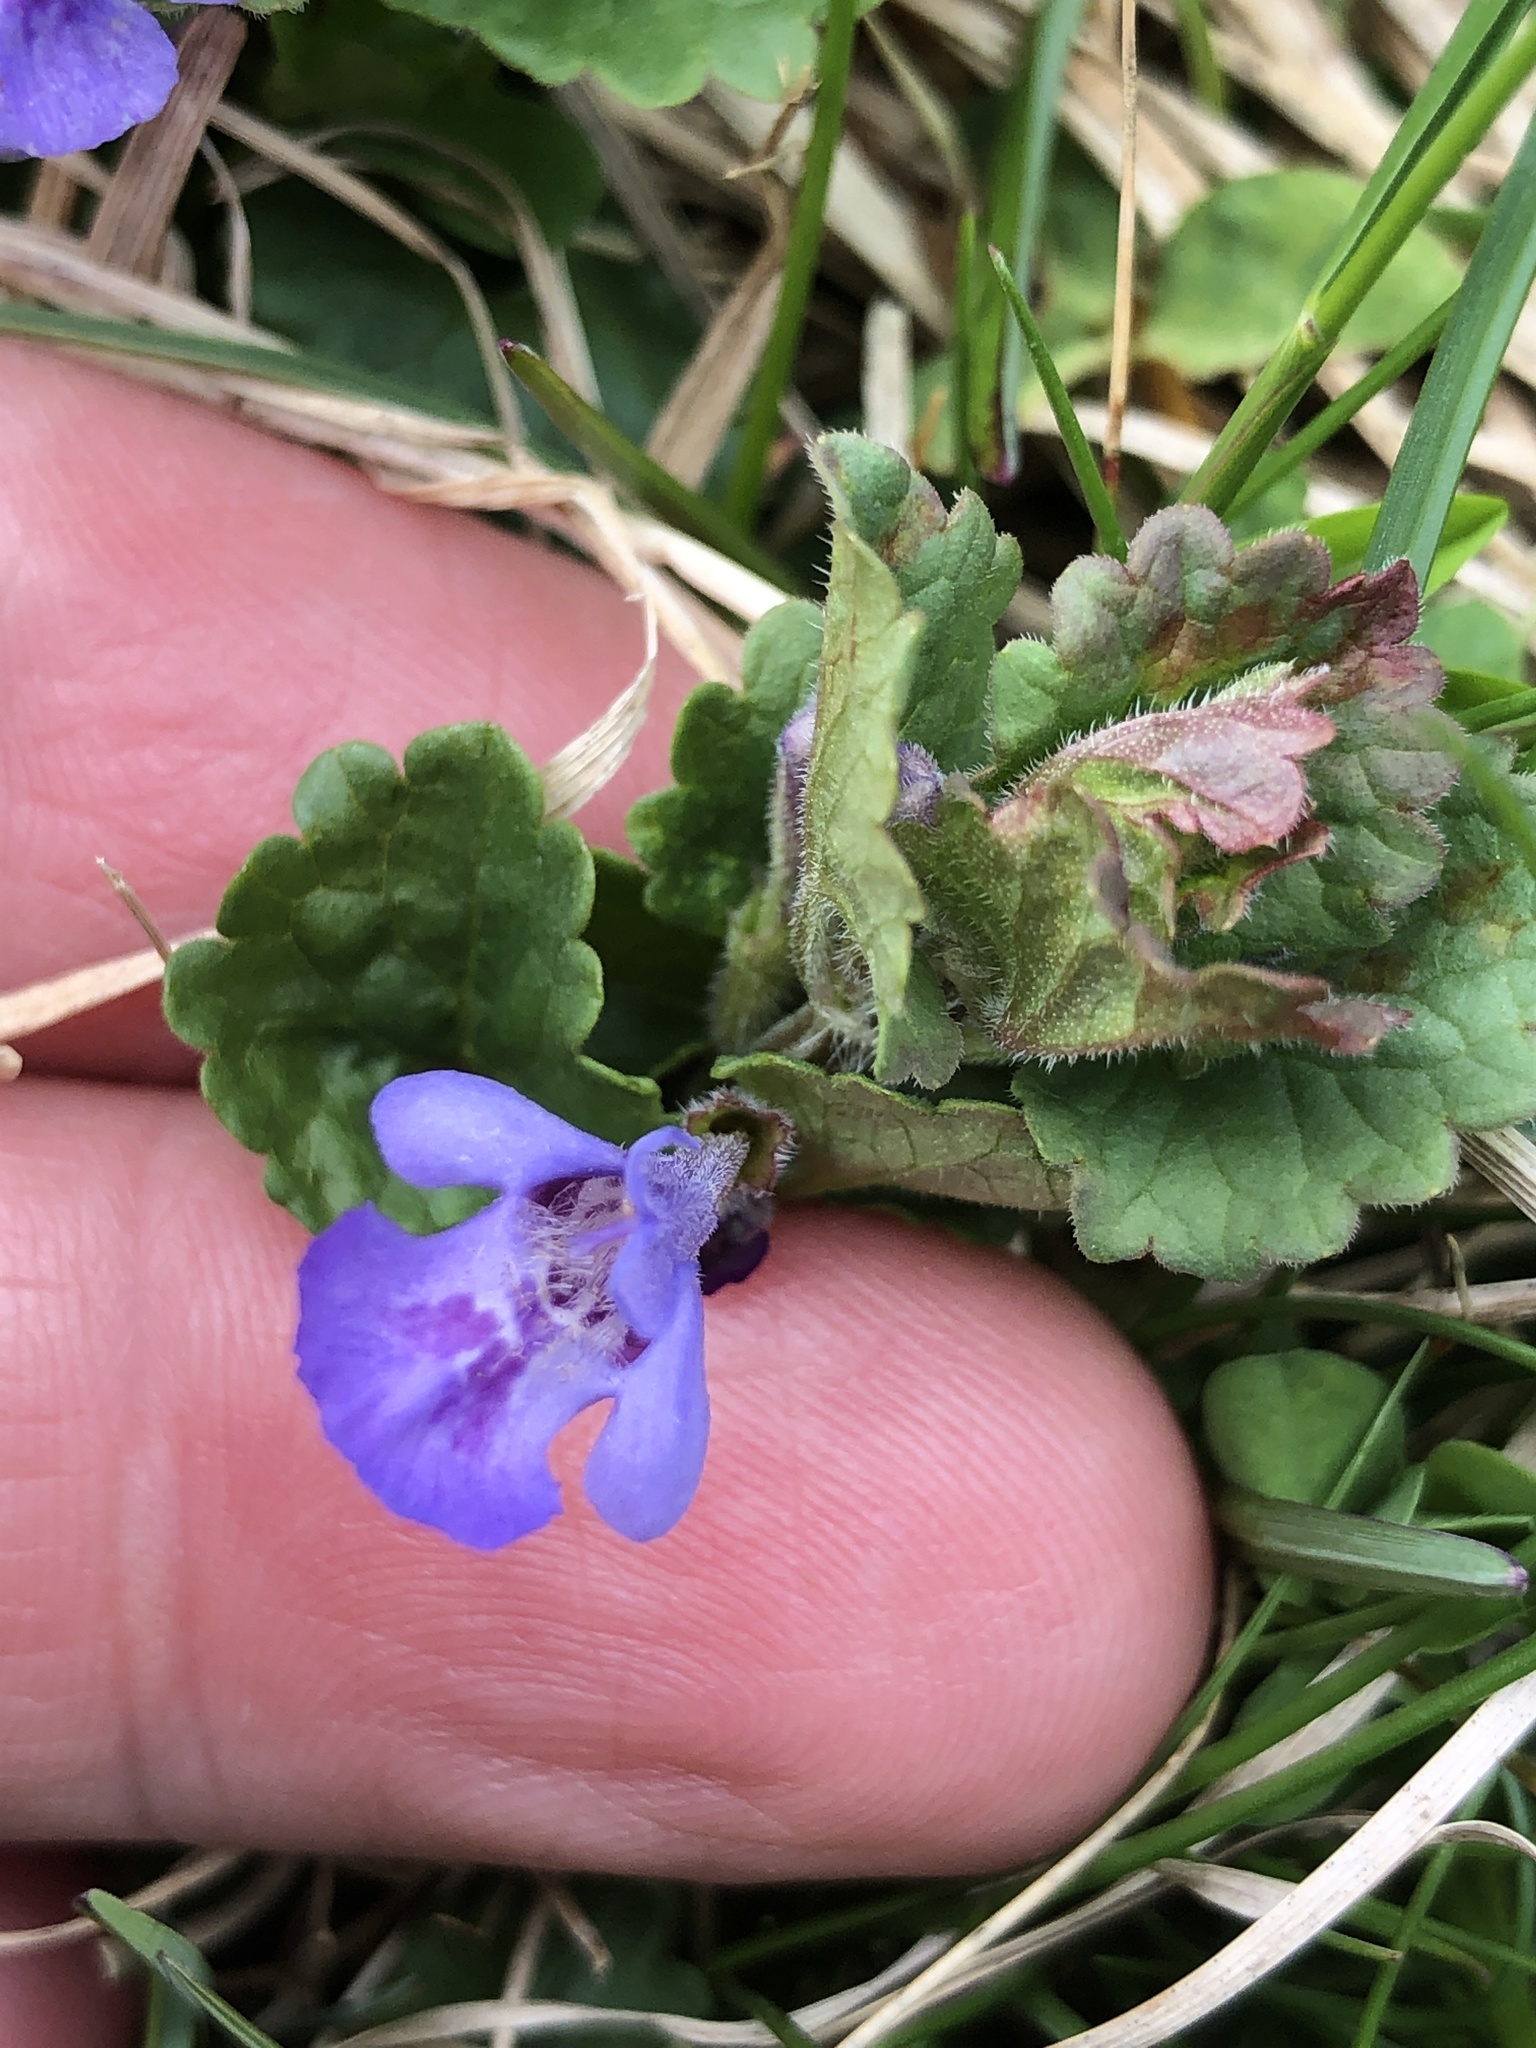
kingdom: Plantae
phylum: Tracheophyta
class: Magnoliopsida
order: Lamiales
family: Lamiaceae
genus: Glechoma
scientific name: Glechoma hederacea
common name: Ground ivy
